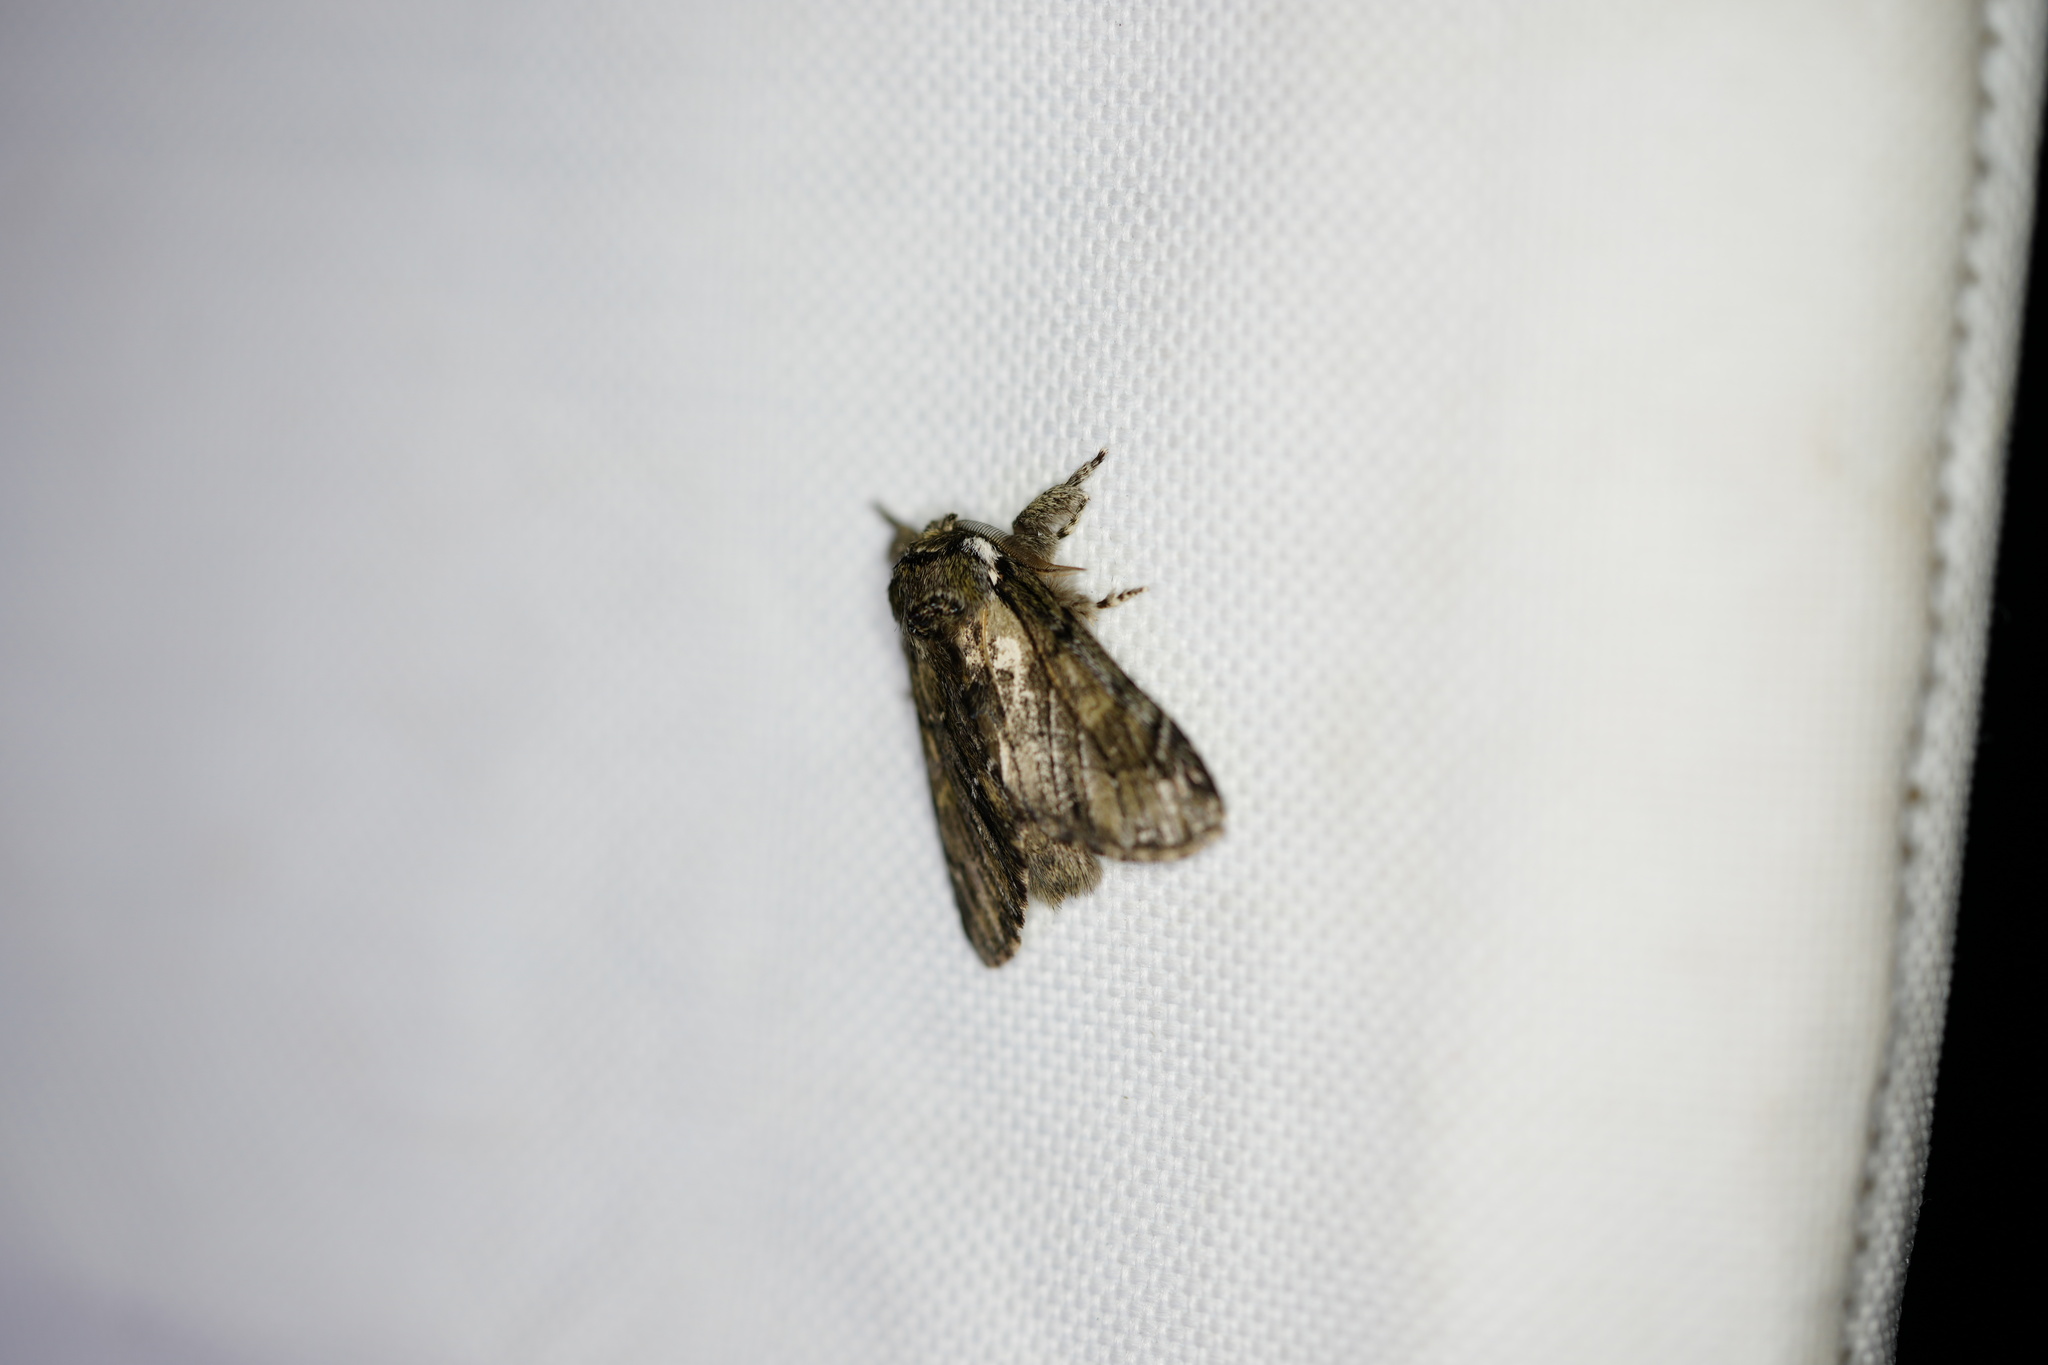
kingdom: Animalia
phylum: Arthropoda
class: Insecta
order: Lepidoptera
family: Notodontidae
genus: Paraeschra
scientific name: Paraeschra georgica
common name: Georgian prominent
